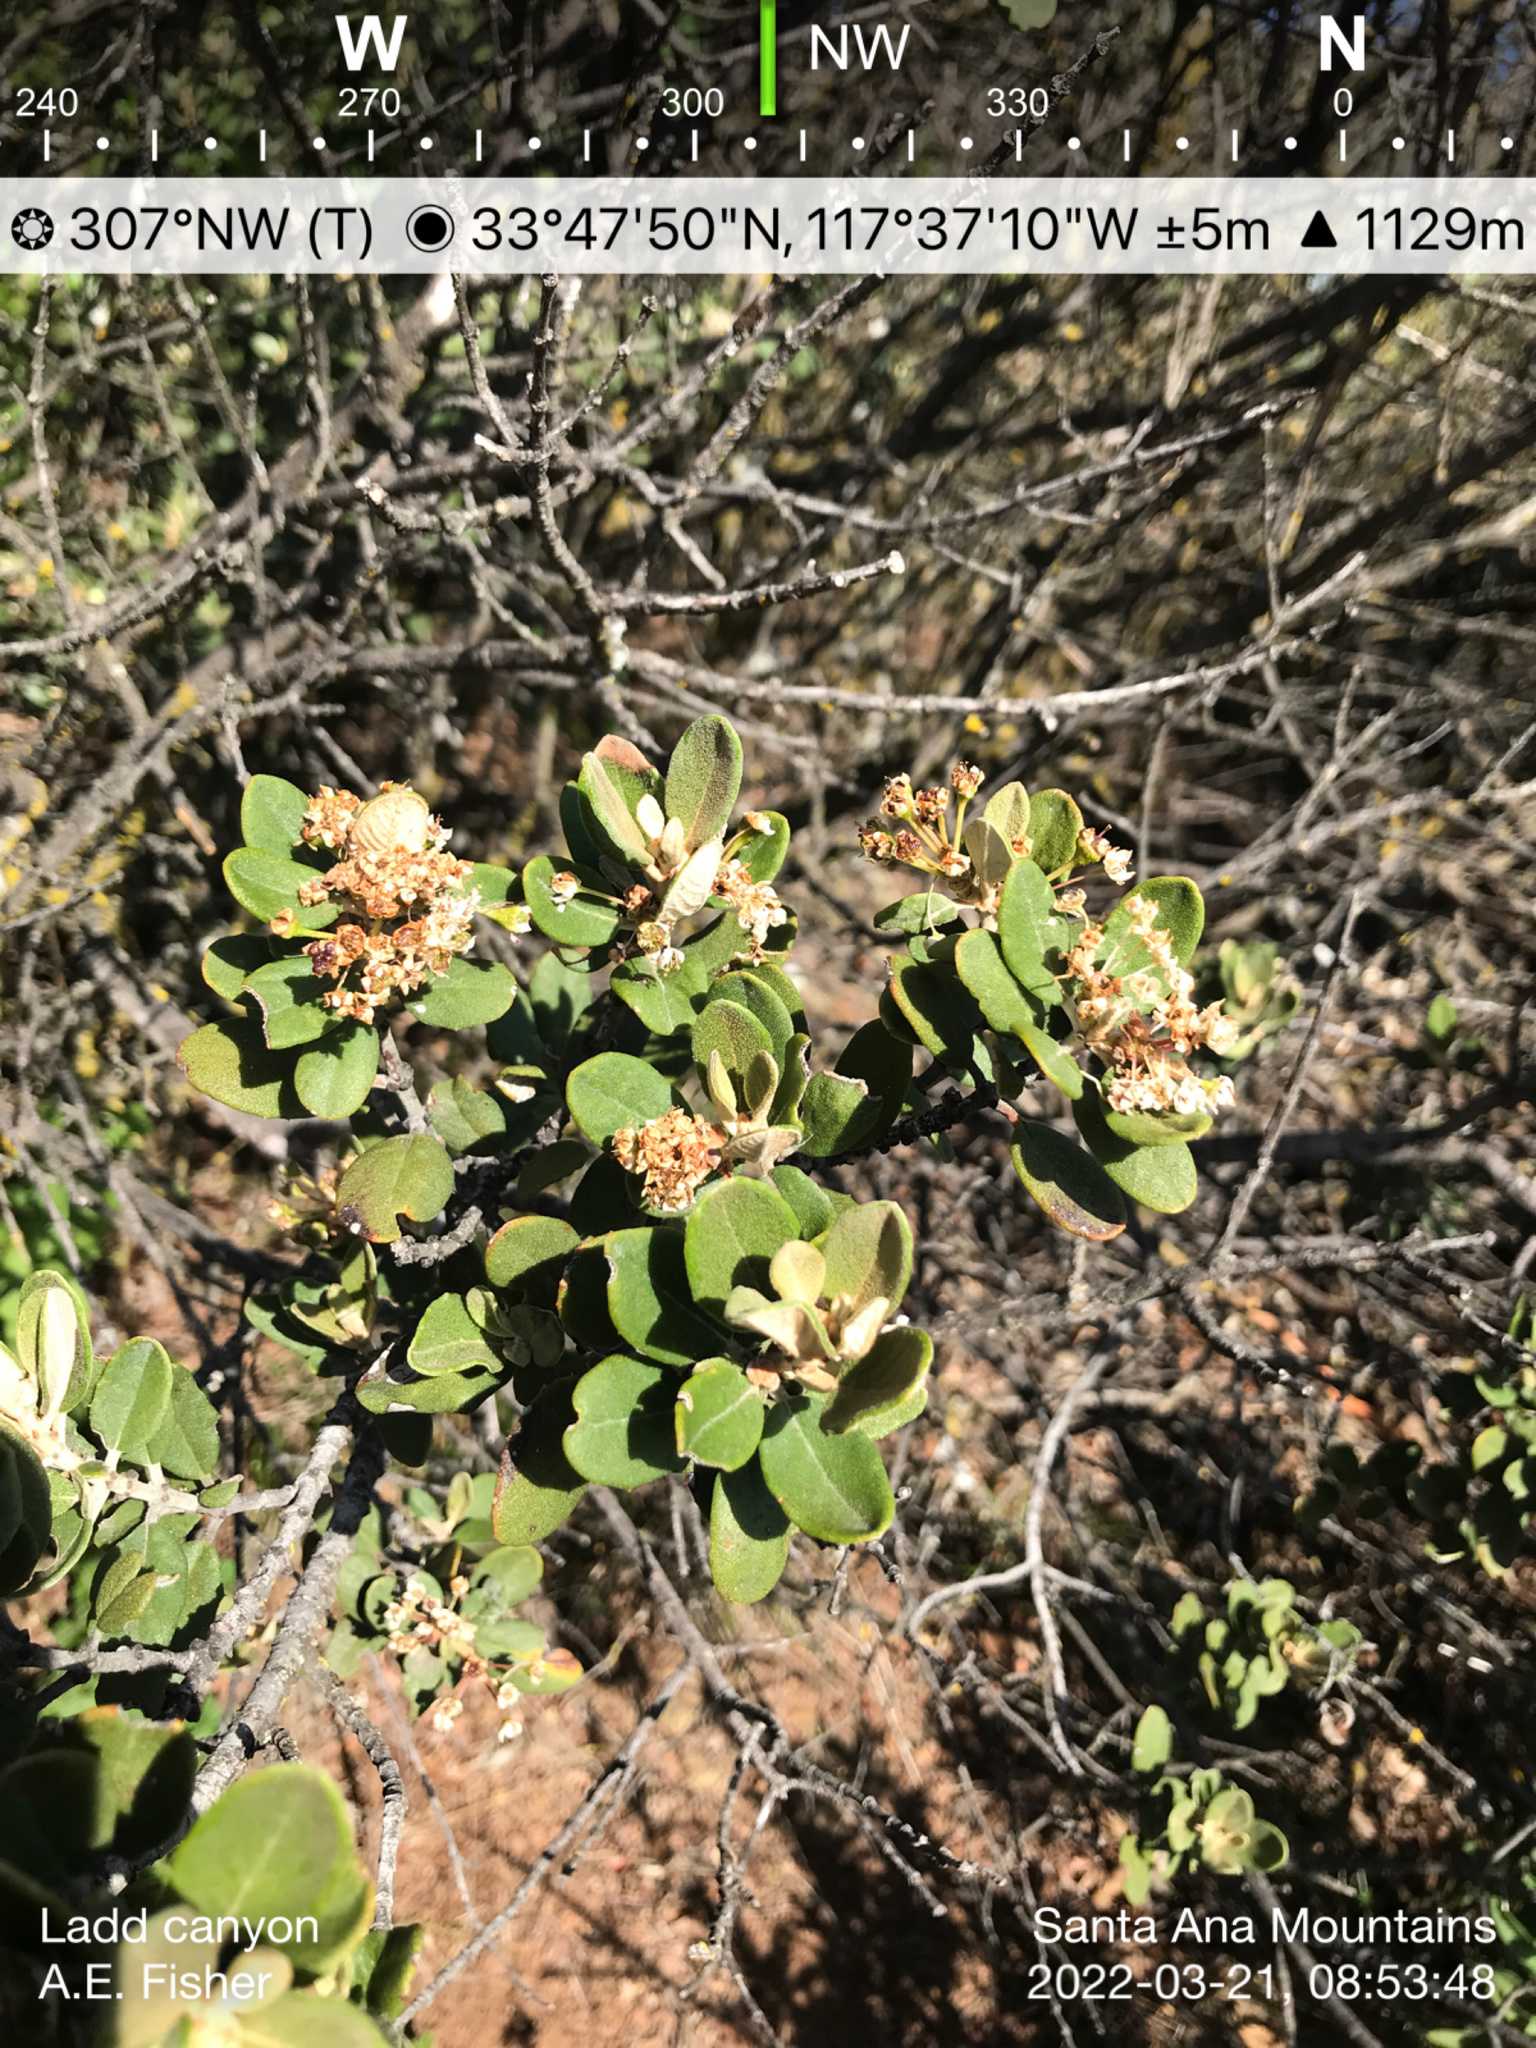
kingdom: Plantae
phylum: Tracheophyta
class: Magnoliopsida
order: Rosales
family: Rhamnaceae
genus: Ceanothus
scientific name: Ceanothus crassifolius
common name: Hoaryleaf ceanothus
